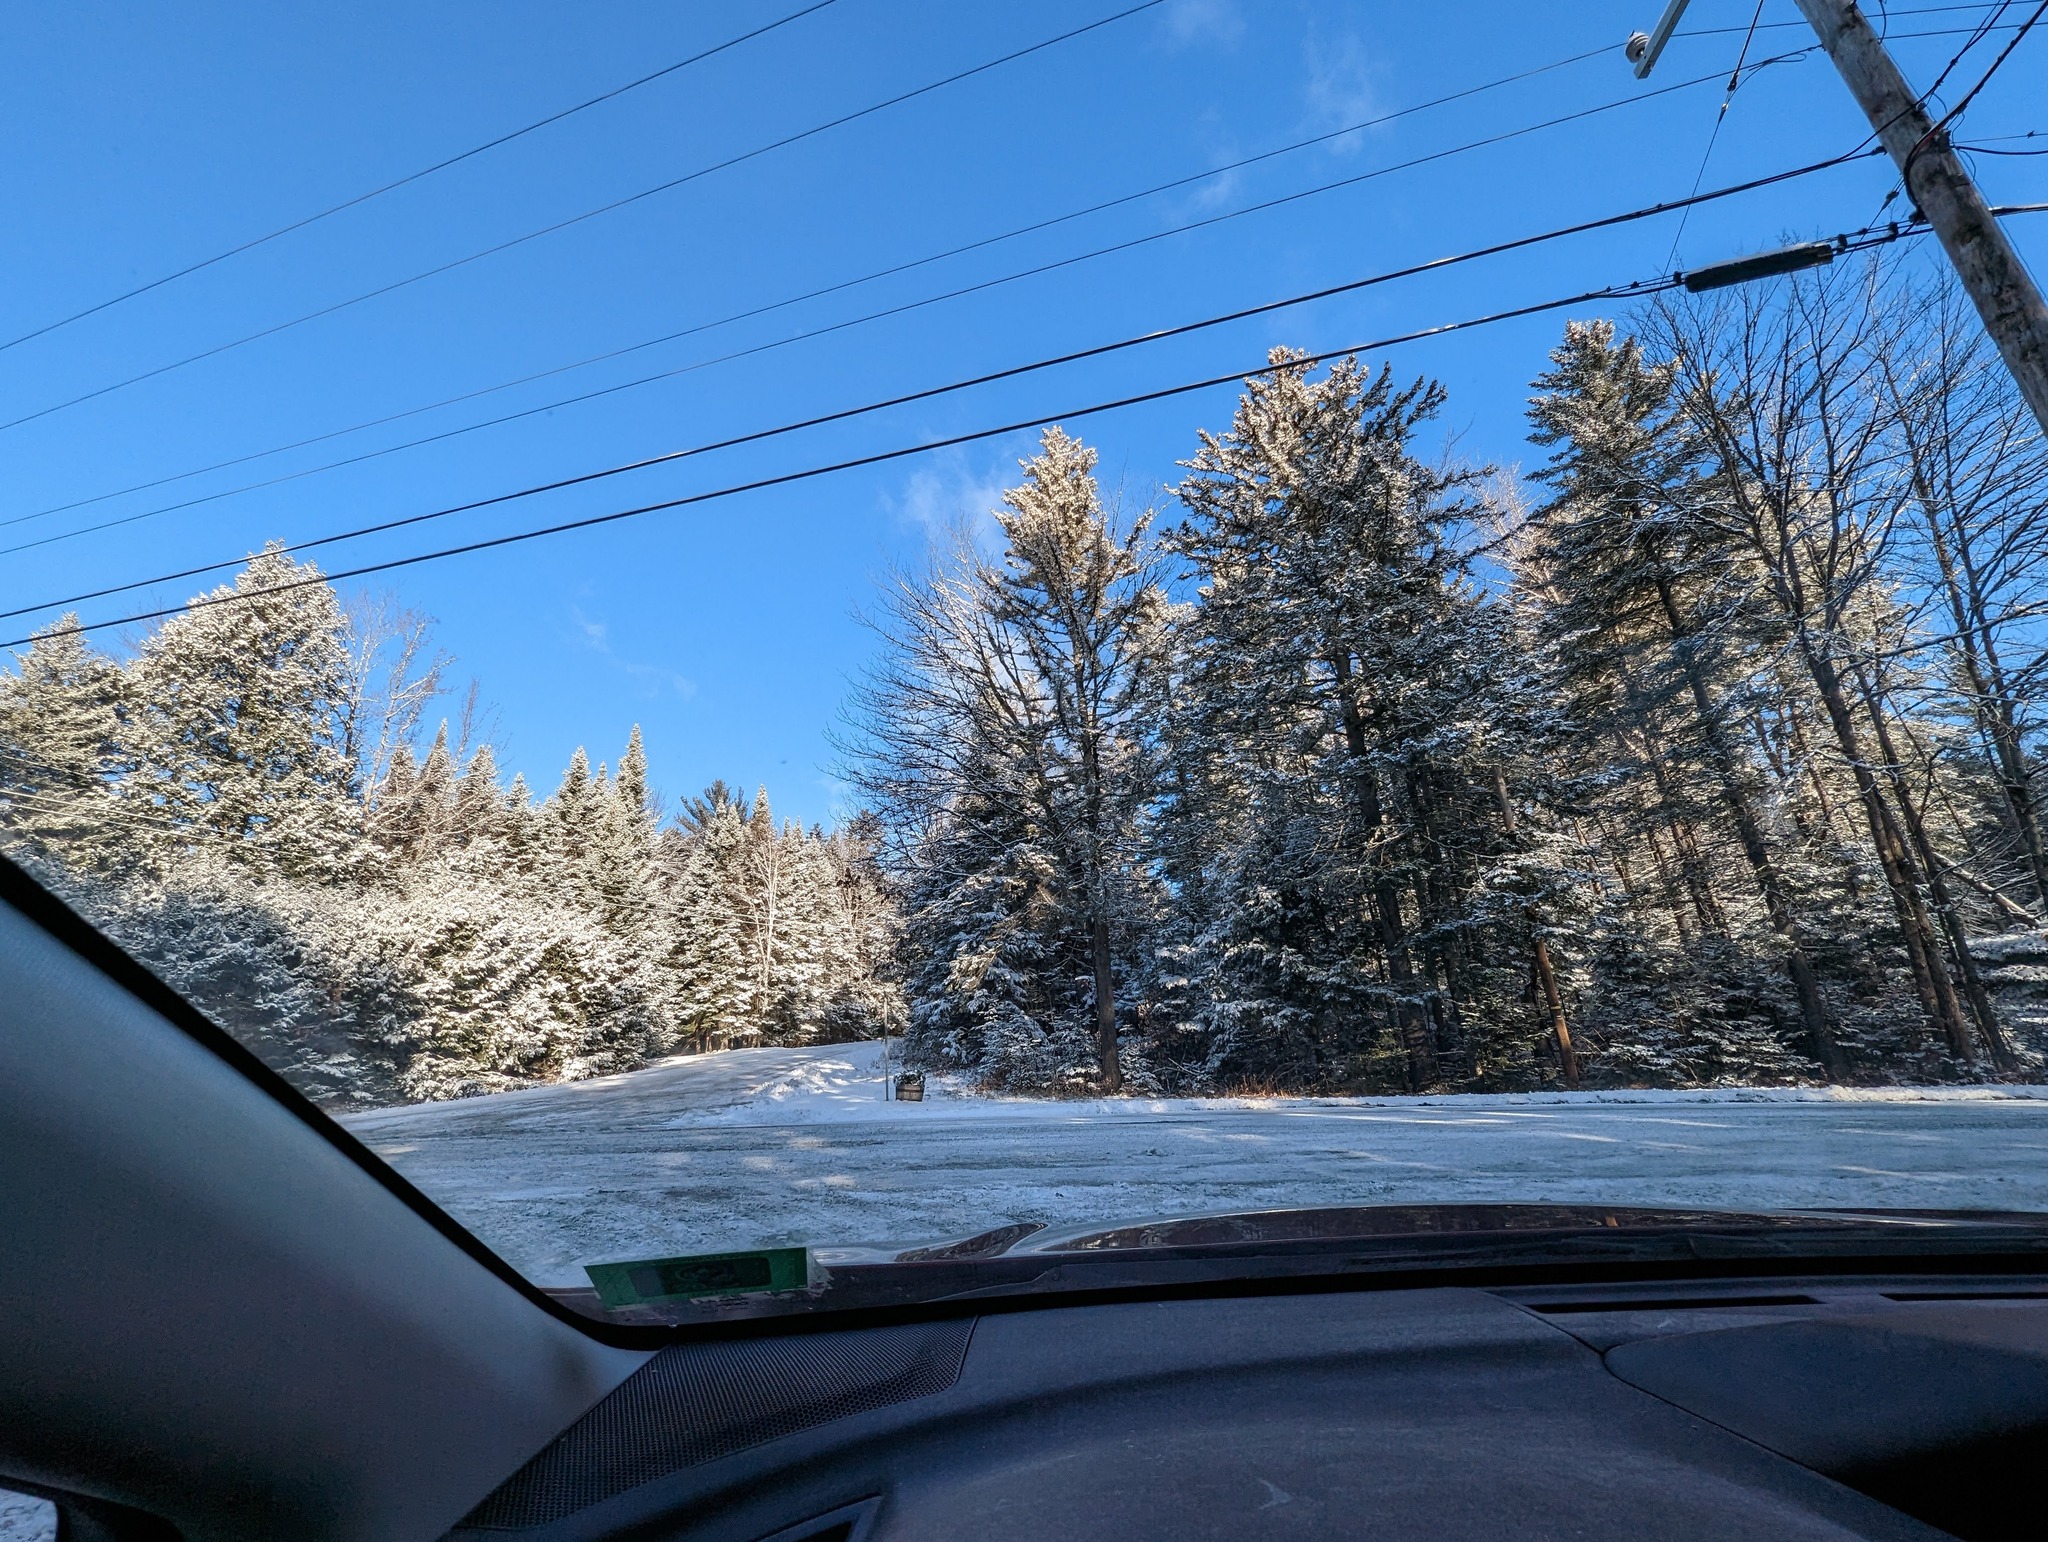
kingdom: Plantae
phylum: Tracheophyta
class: Pinopsida
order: Pinales
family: Pinaceae
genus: Pinus
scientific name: Pinus strobus
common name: Weymouth pine
